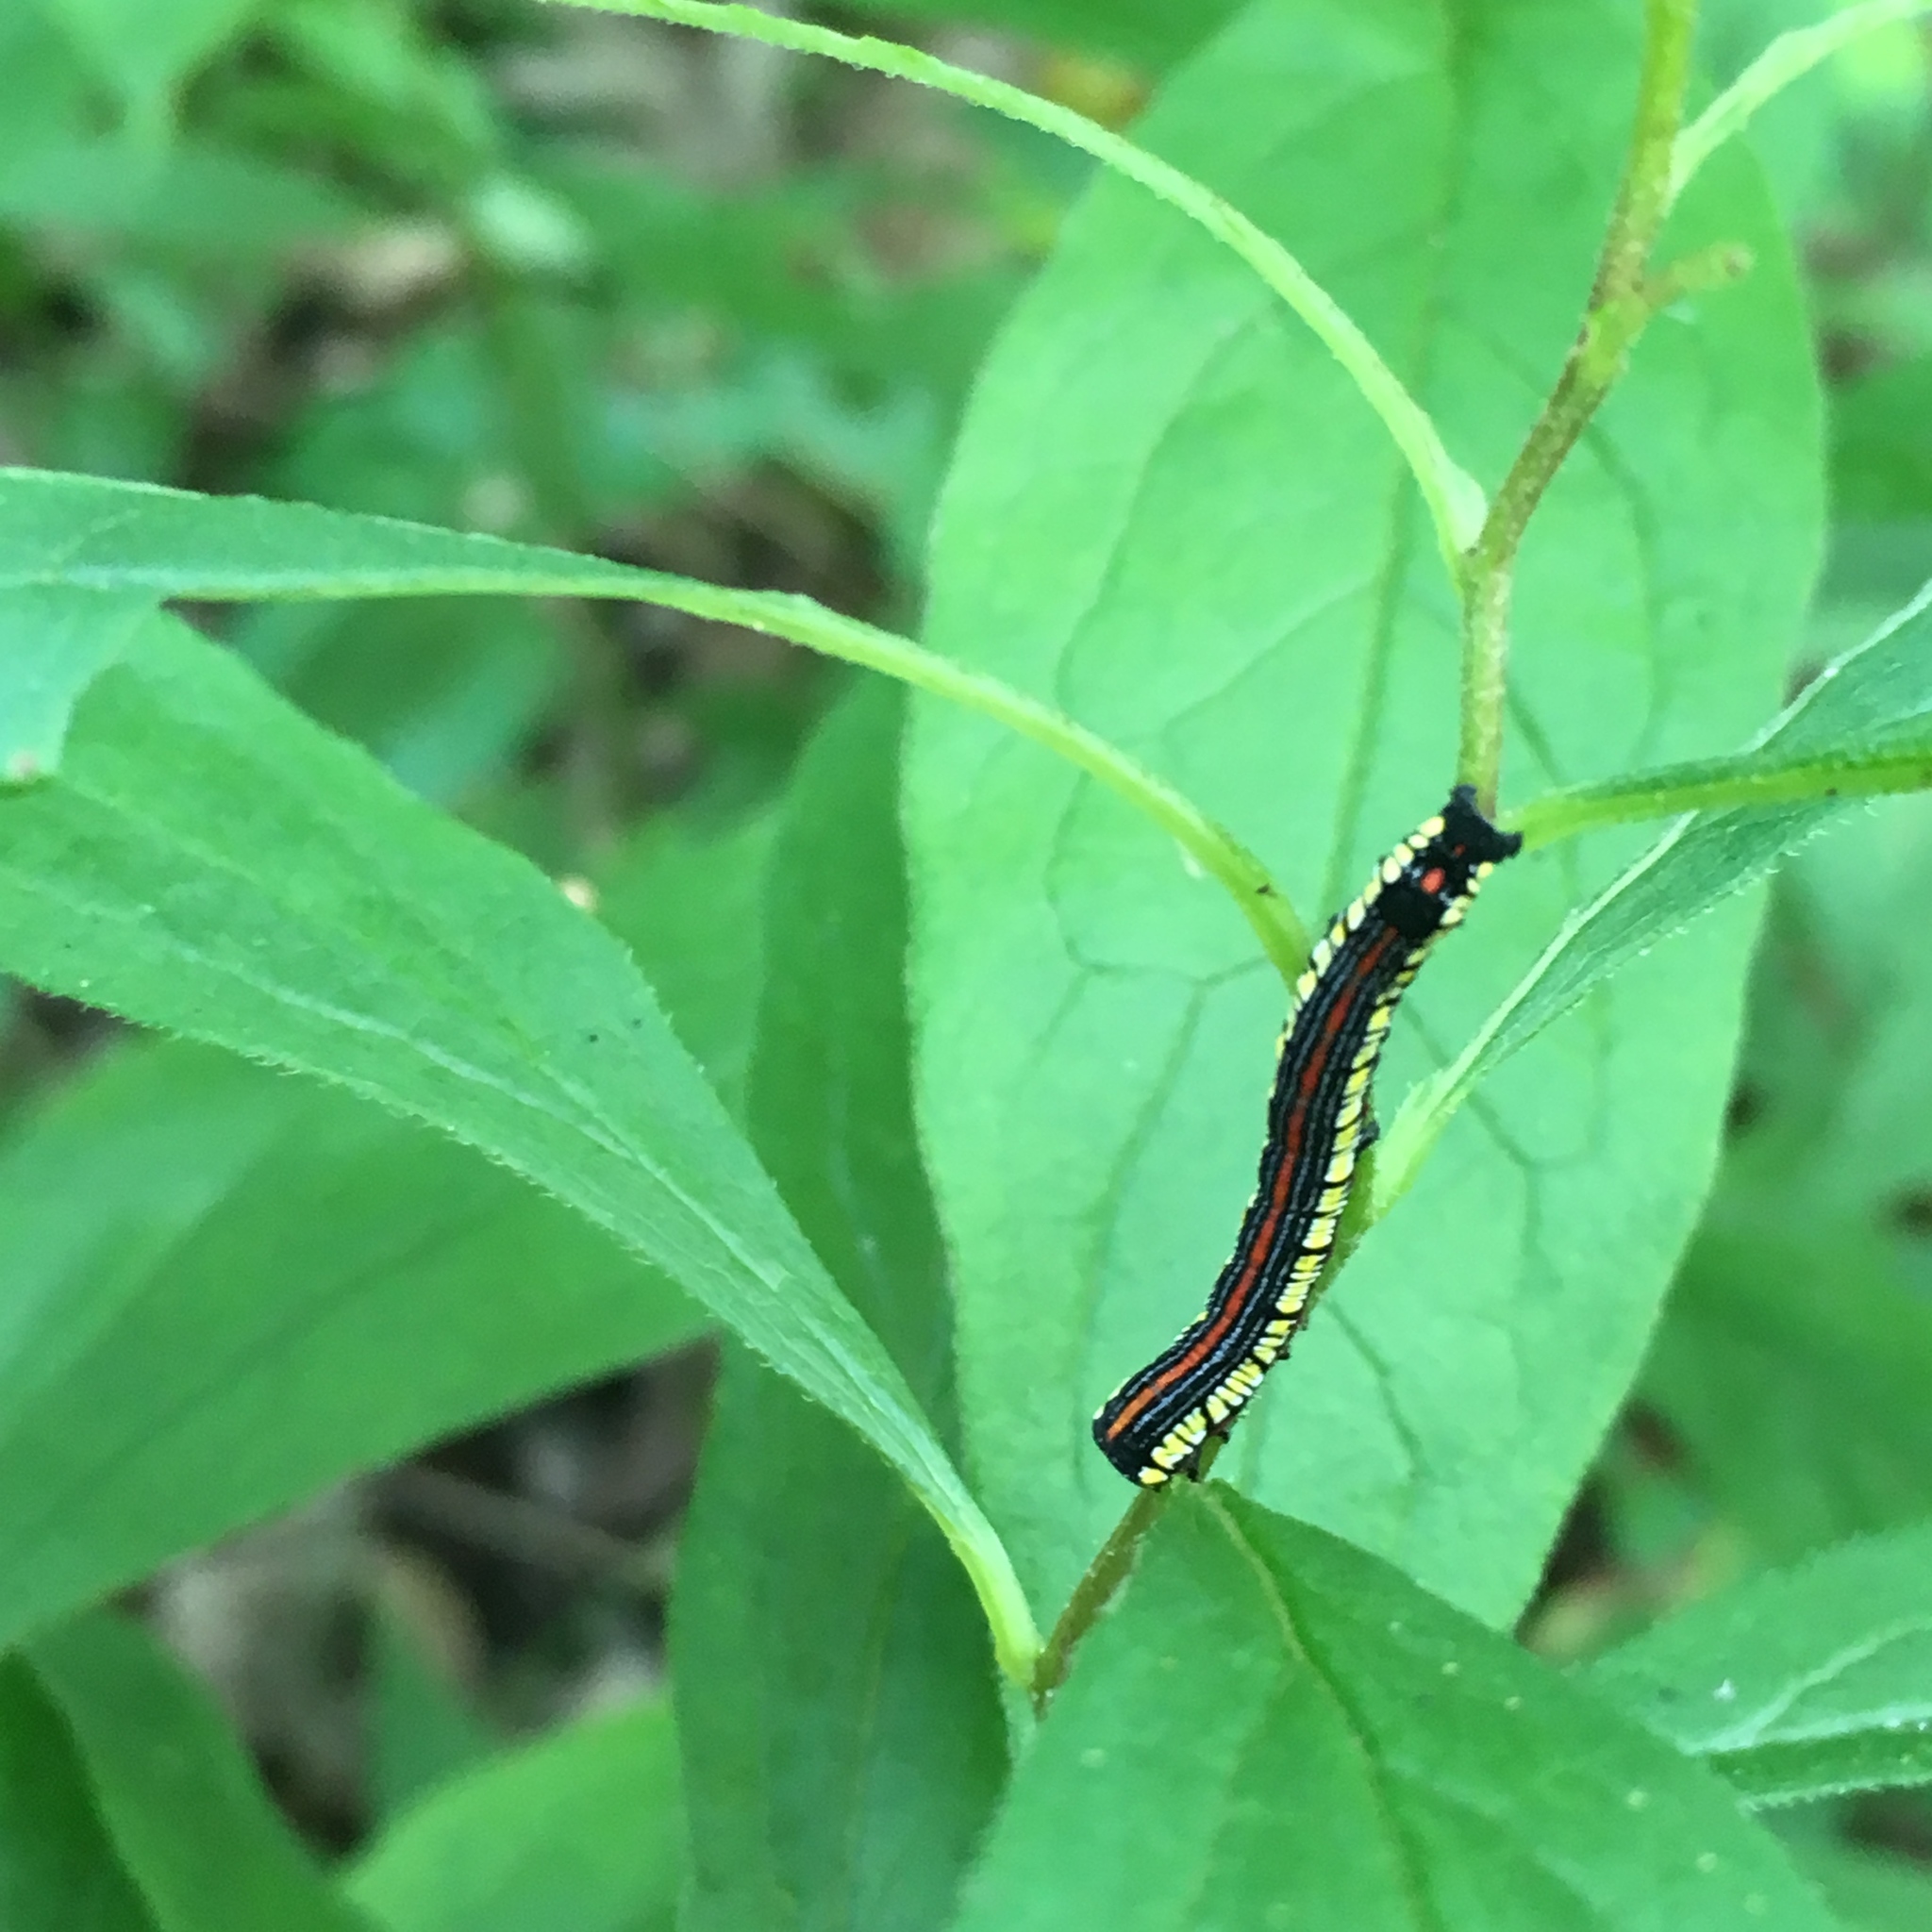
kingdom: Animalia
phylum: Arthropoda
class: Insecta
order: Lepidoptera
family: Noctuidae
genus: Cucullia
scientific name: Cucullia convexipennis
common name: Brown-hooded owlet
